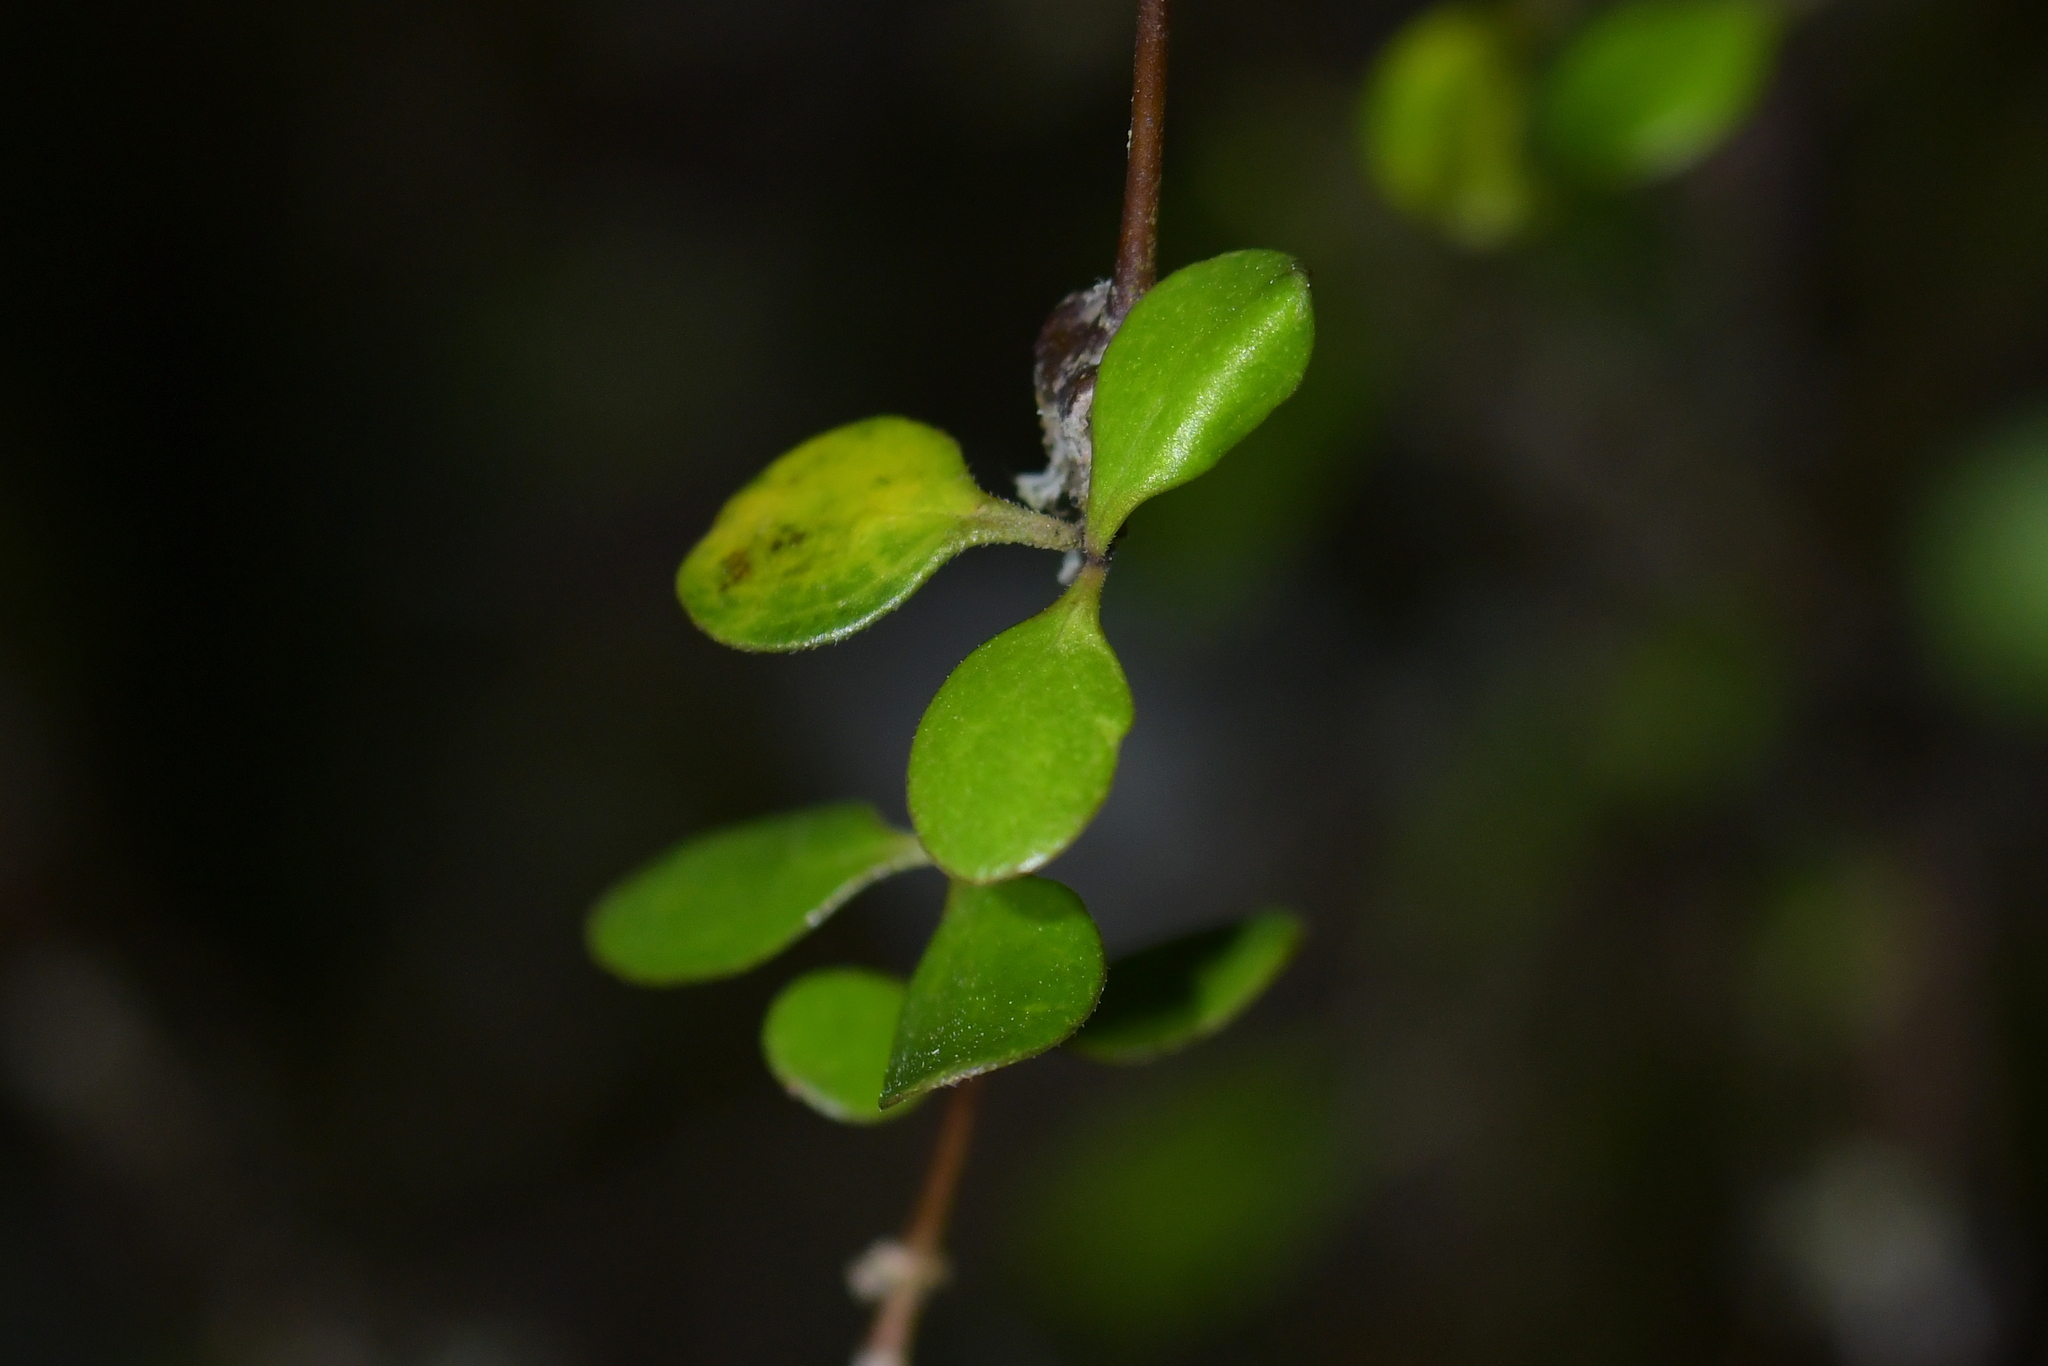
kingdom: Plantae
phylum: Tracheophyta
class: Magnoliopsida
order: Gentianales
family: Rubiaceae
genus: Coprosma
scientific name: Coprosma crassifolia
